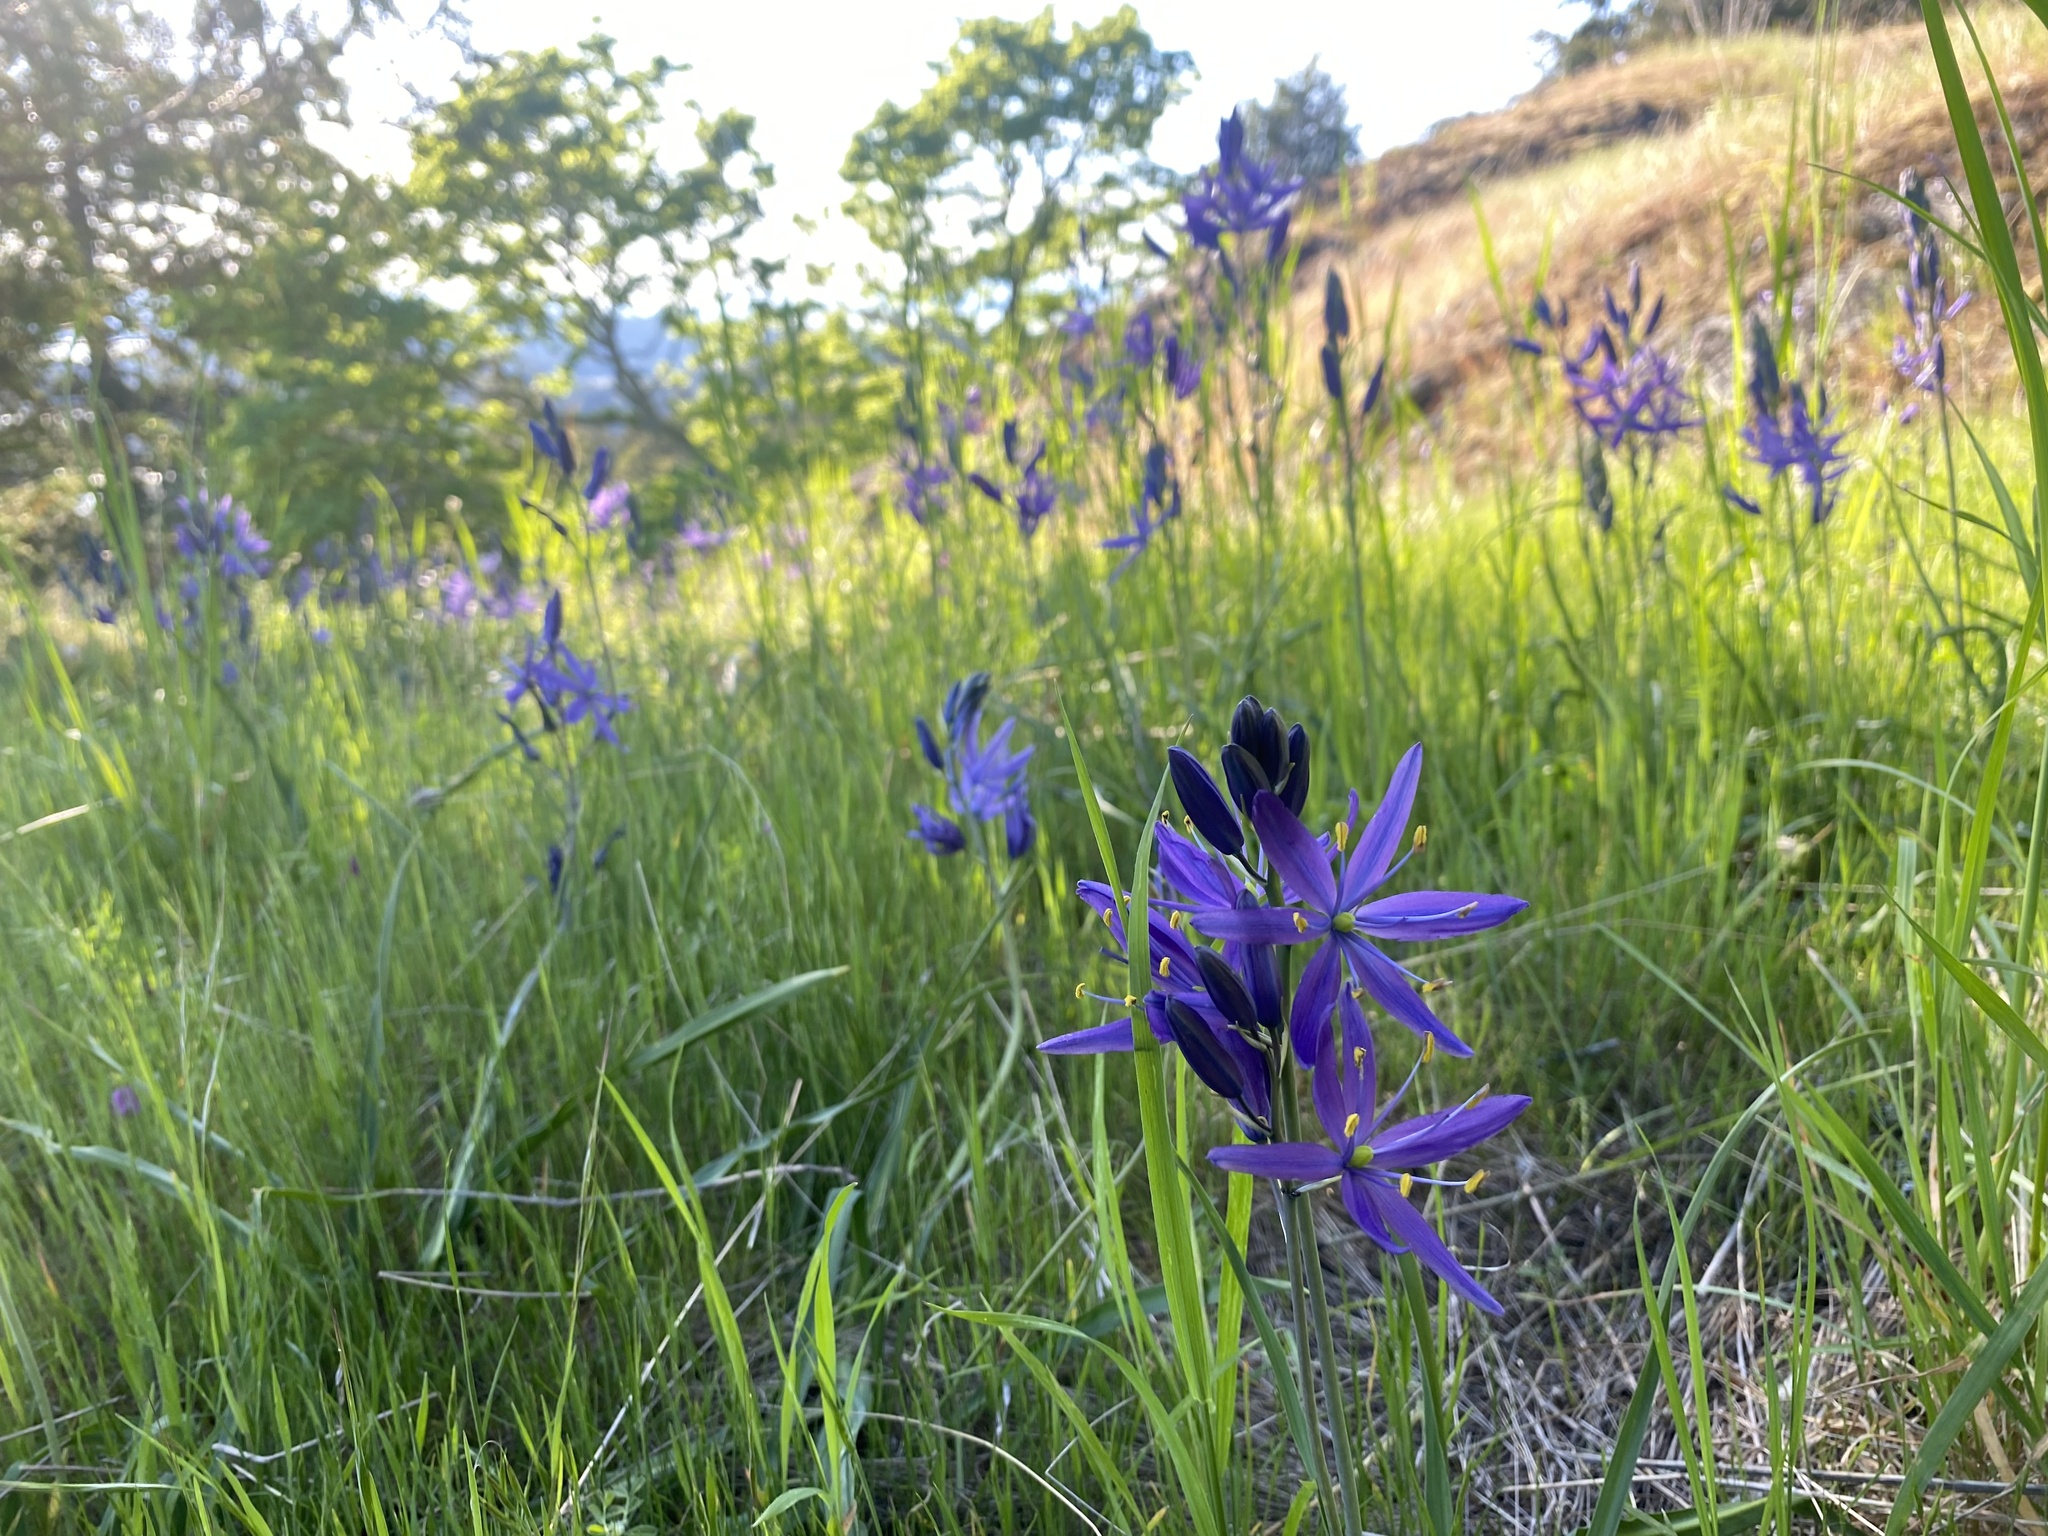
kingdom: Plantae
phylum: Tracheophyta
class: Liliopsida
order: Asparagales
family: Asparagaceae
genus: Camassia
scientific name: Camassia quamash
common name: Common camas
